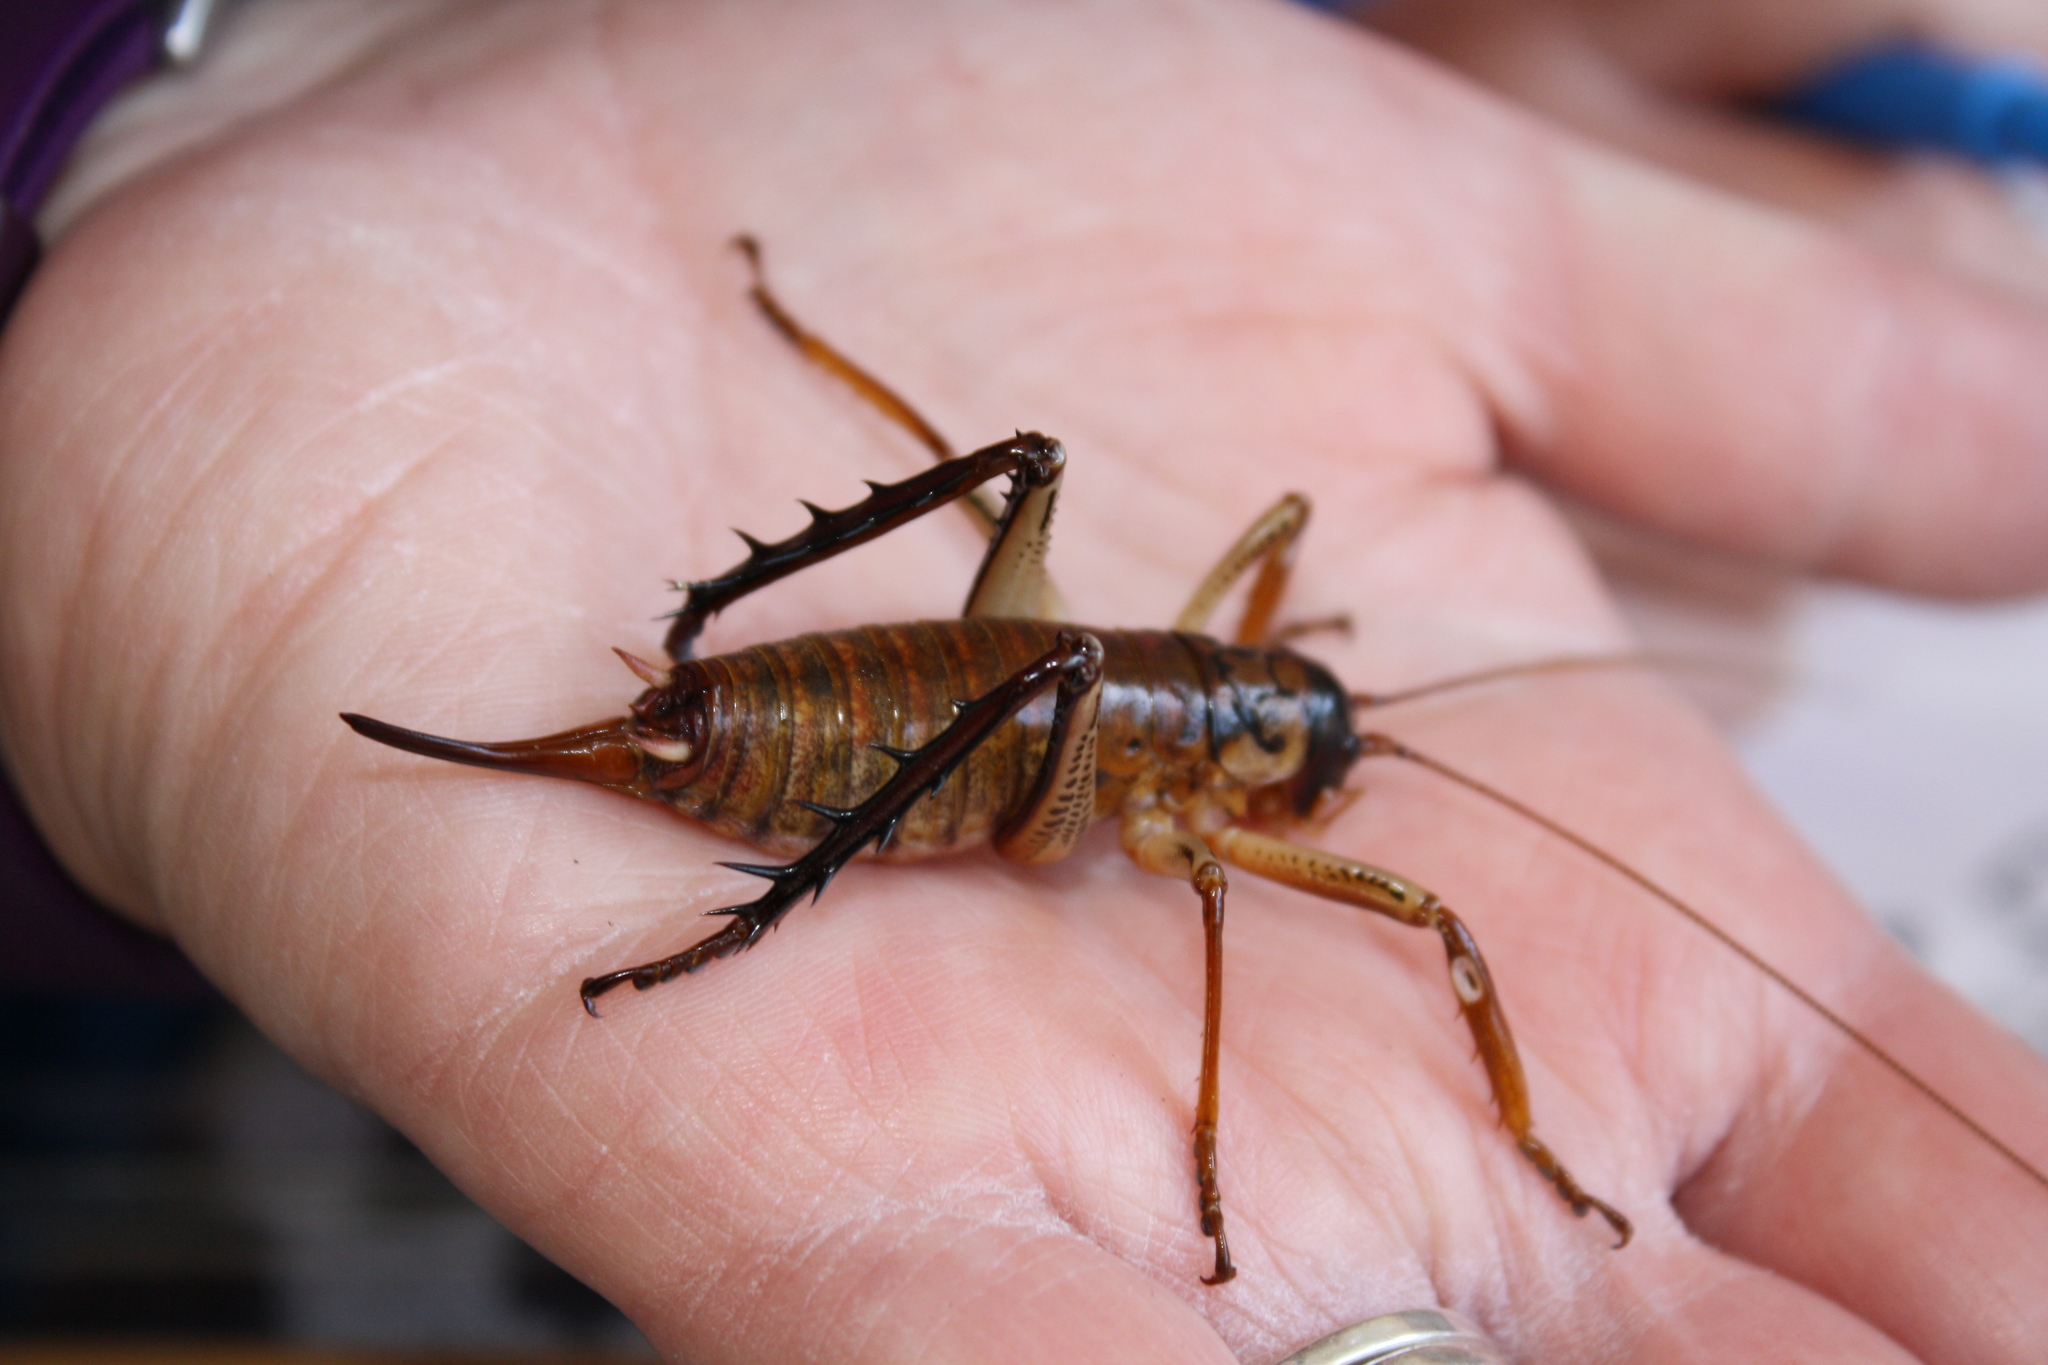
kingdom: Animalia
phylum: Arthropoda
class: Insecta
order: Orthoptera
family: Anostostomatidae
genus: Hemideina
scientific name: Hemideina thoracica
